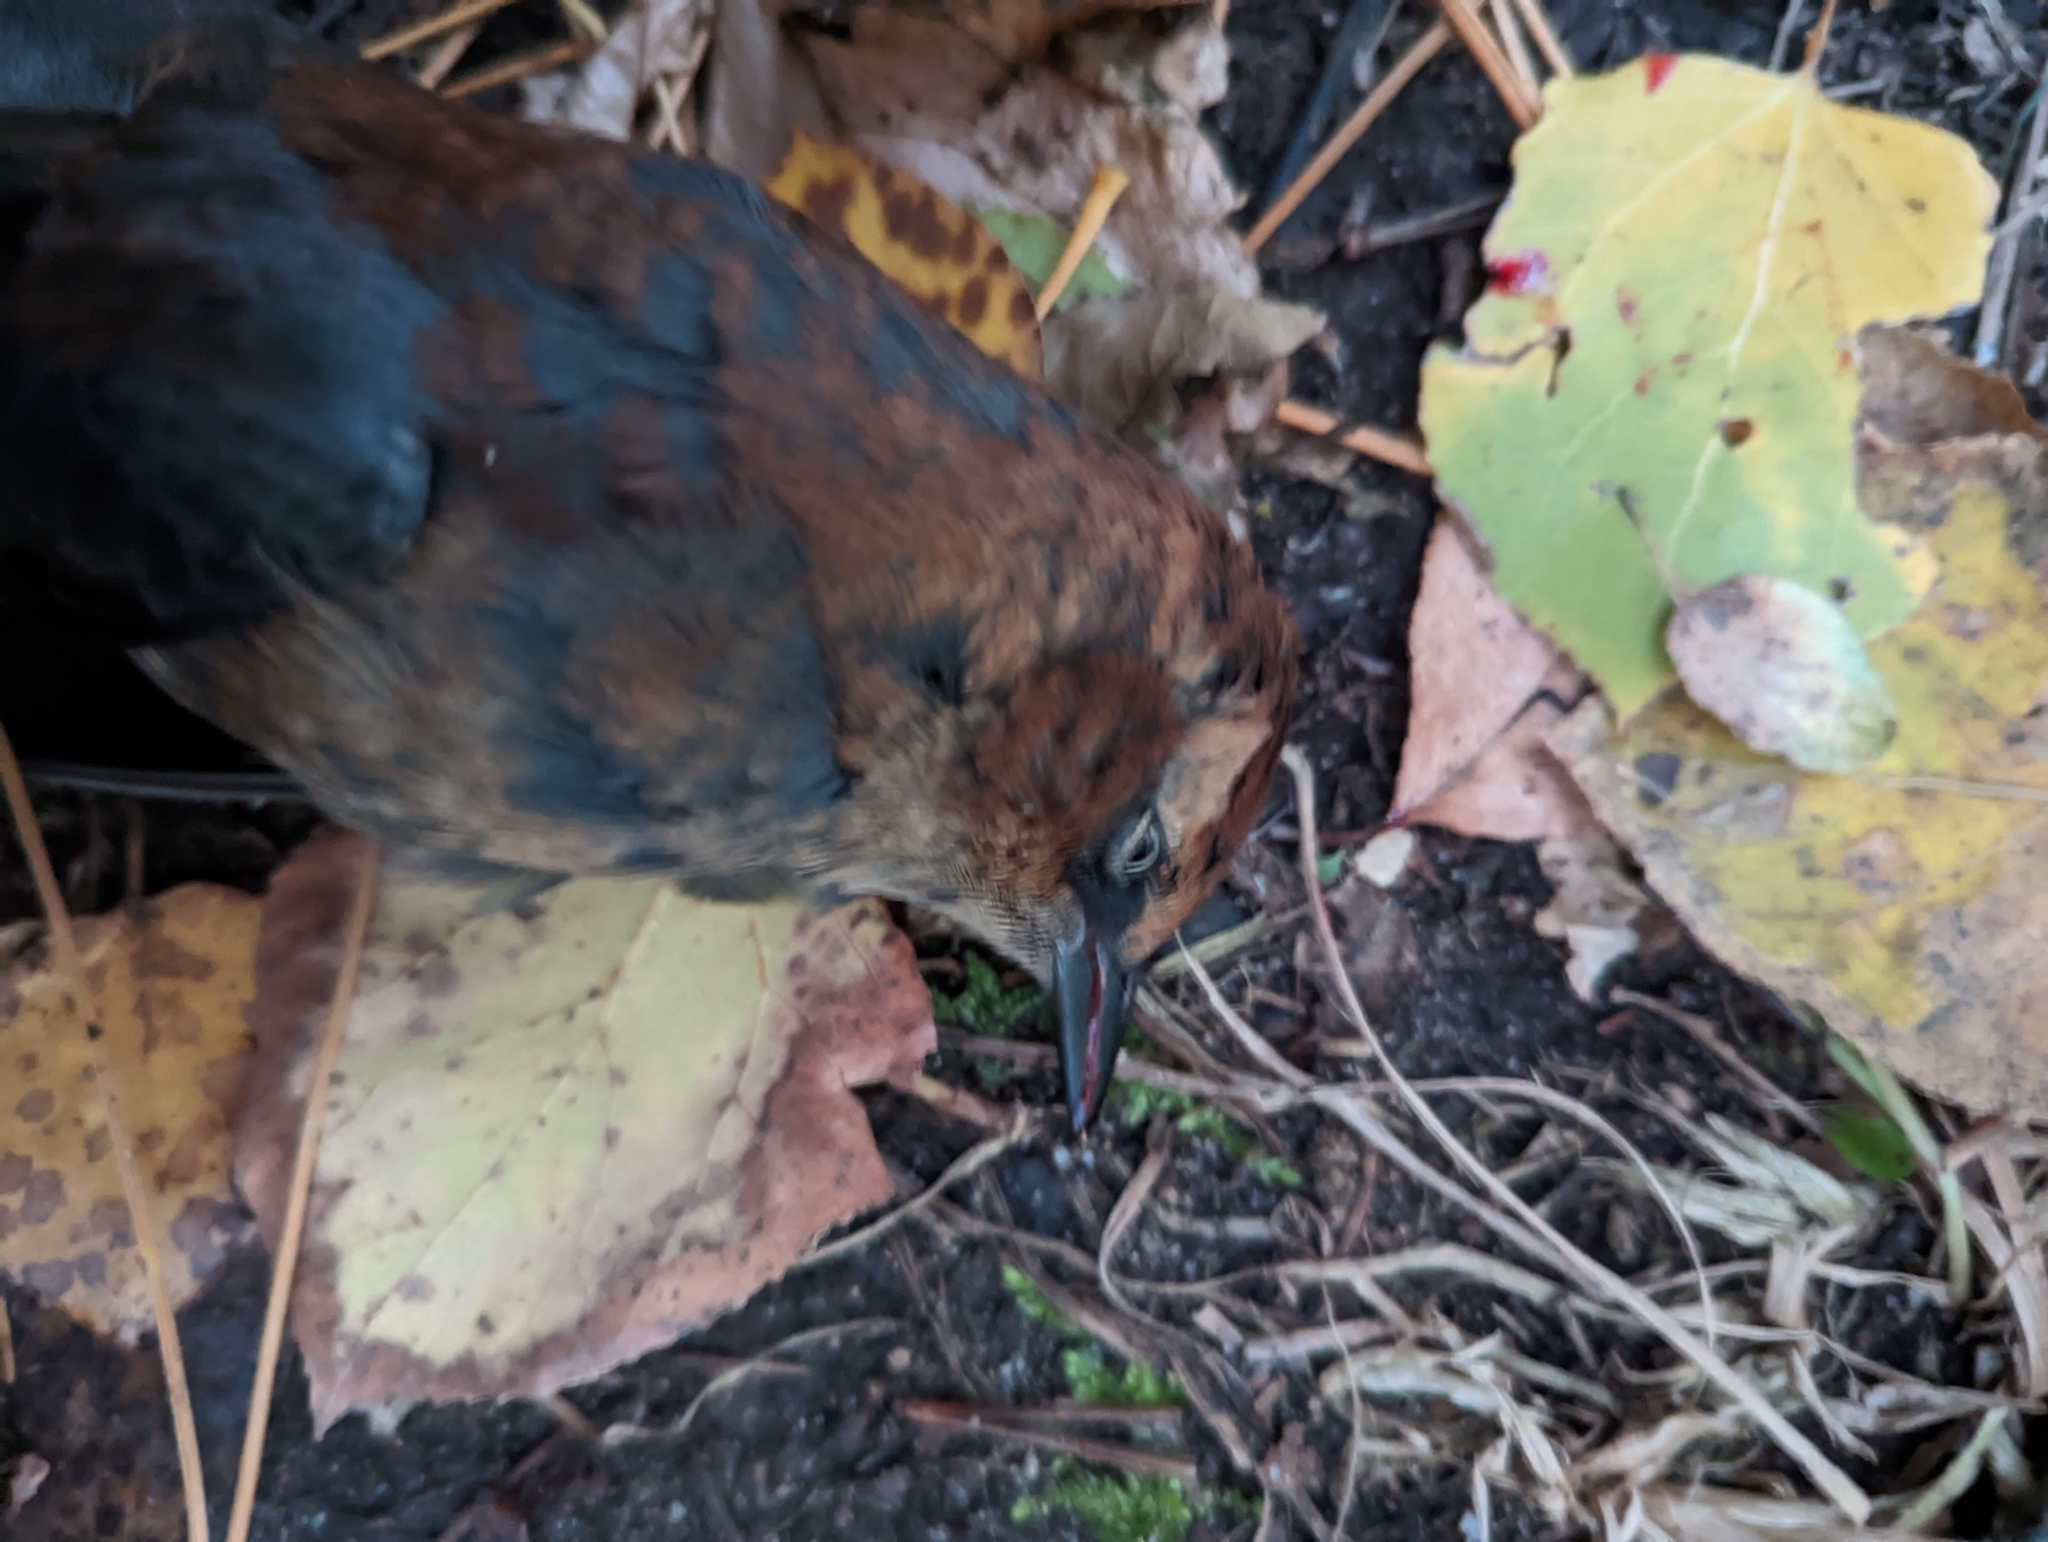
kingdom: Animalia
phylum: Chordata
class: Aves
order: Passeriformes
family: Icteridae
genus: Euphagus
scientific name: Euphagus carolinus
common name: Rusty blackbird
